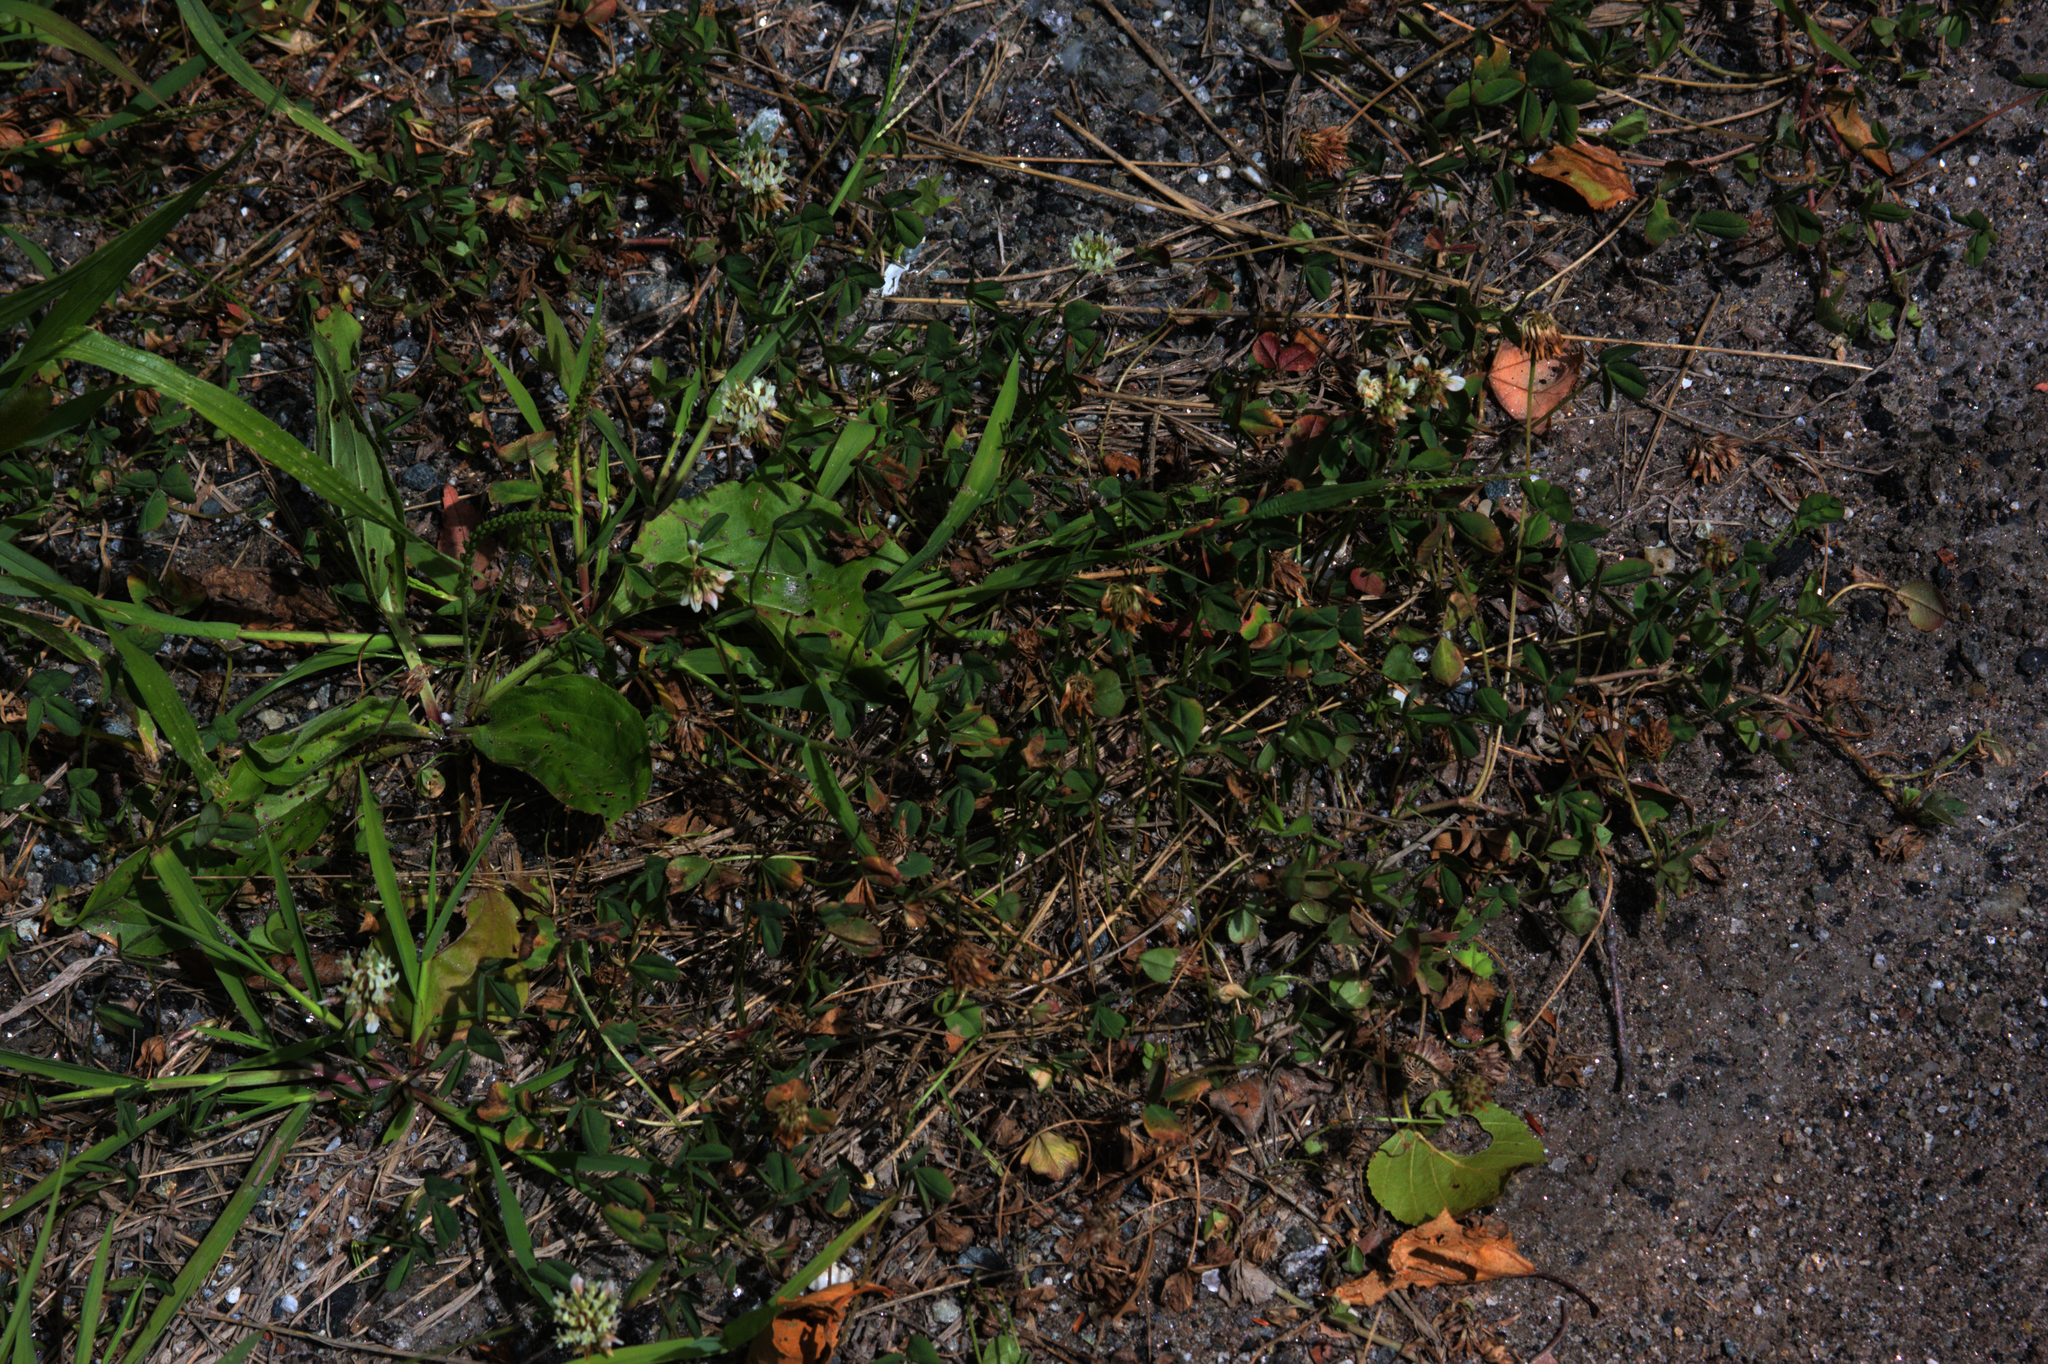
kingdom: Plantae
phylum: Tracheophyta
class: Magnoliopsida
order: Fabales
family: Fabaceae
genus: Trifolium
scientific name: Trifolium repens
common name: White clover
